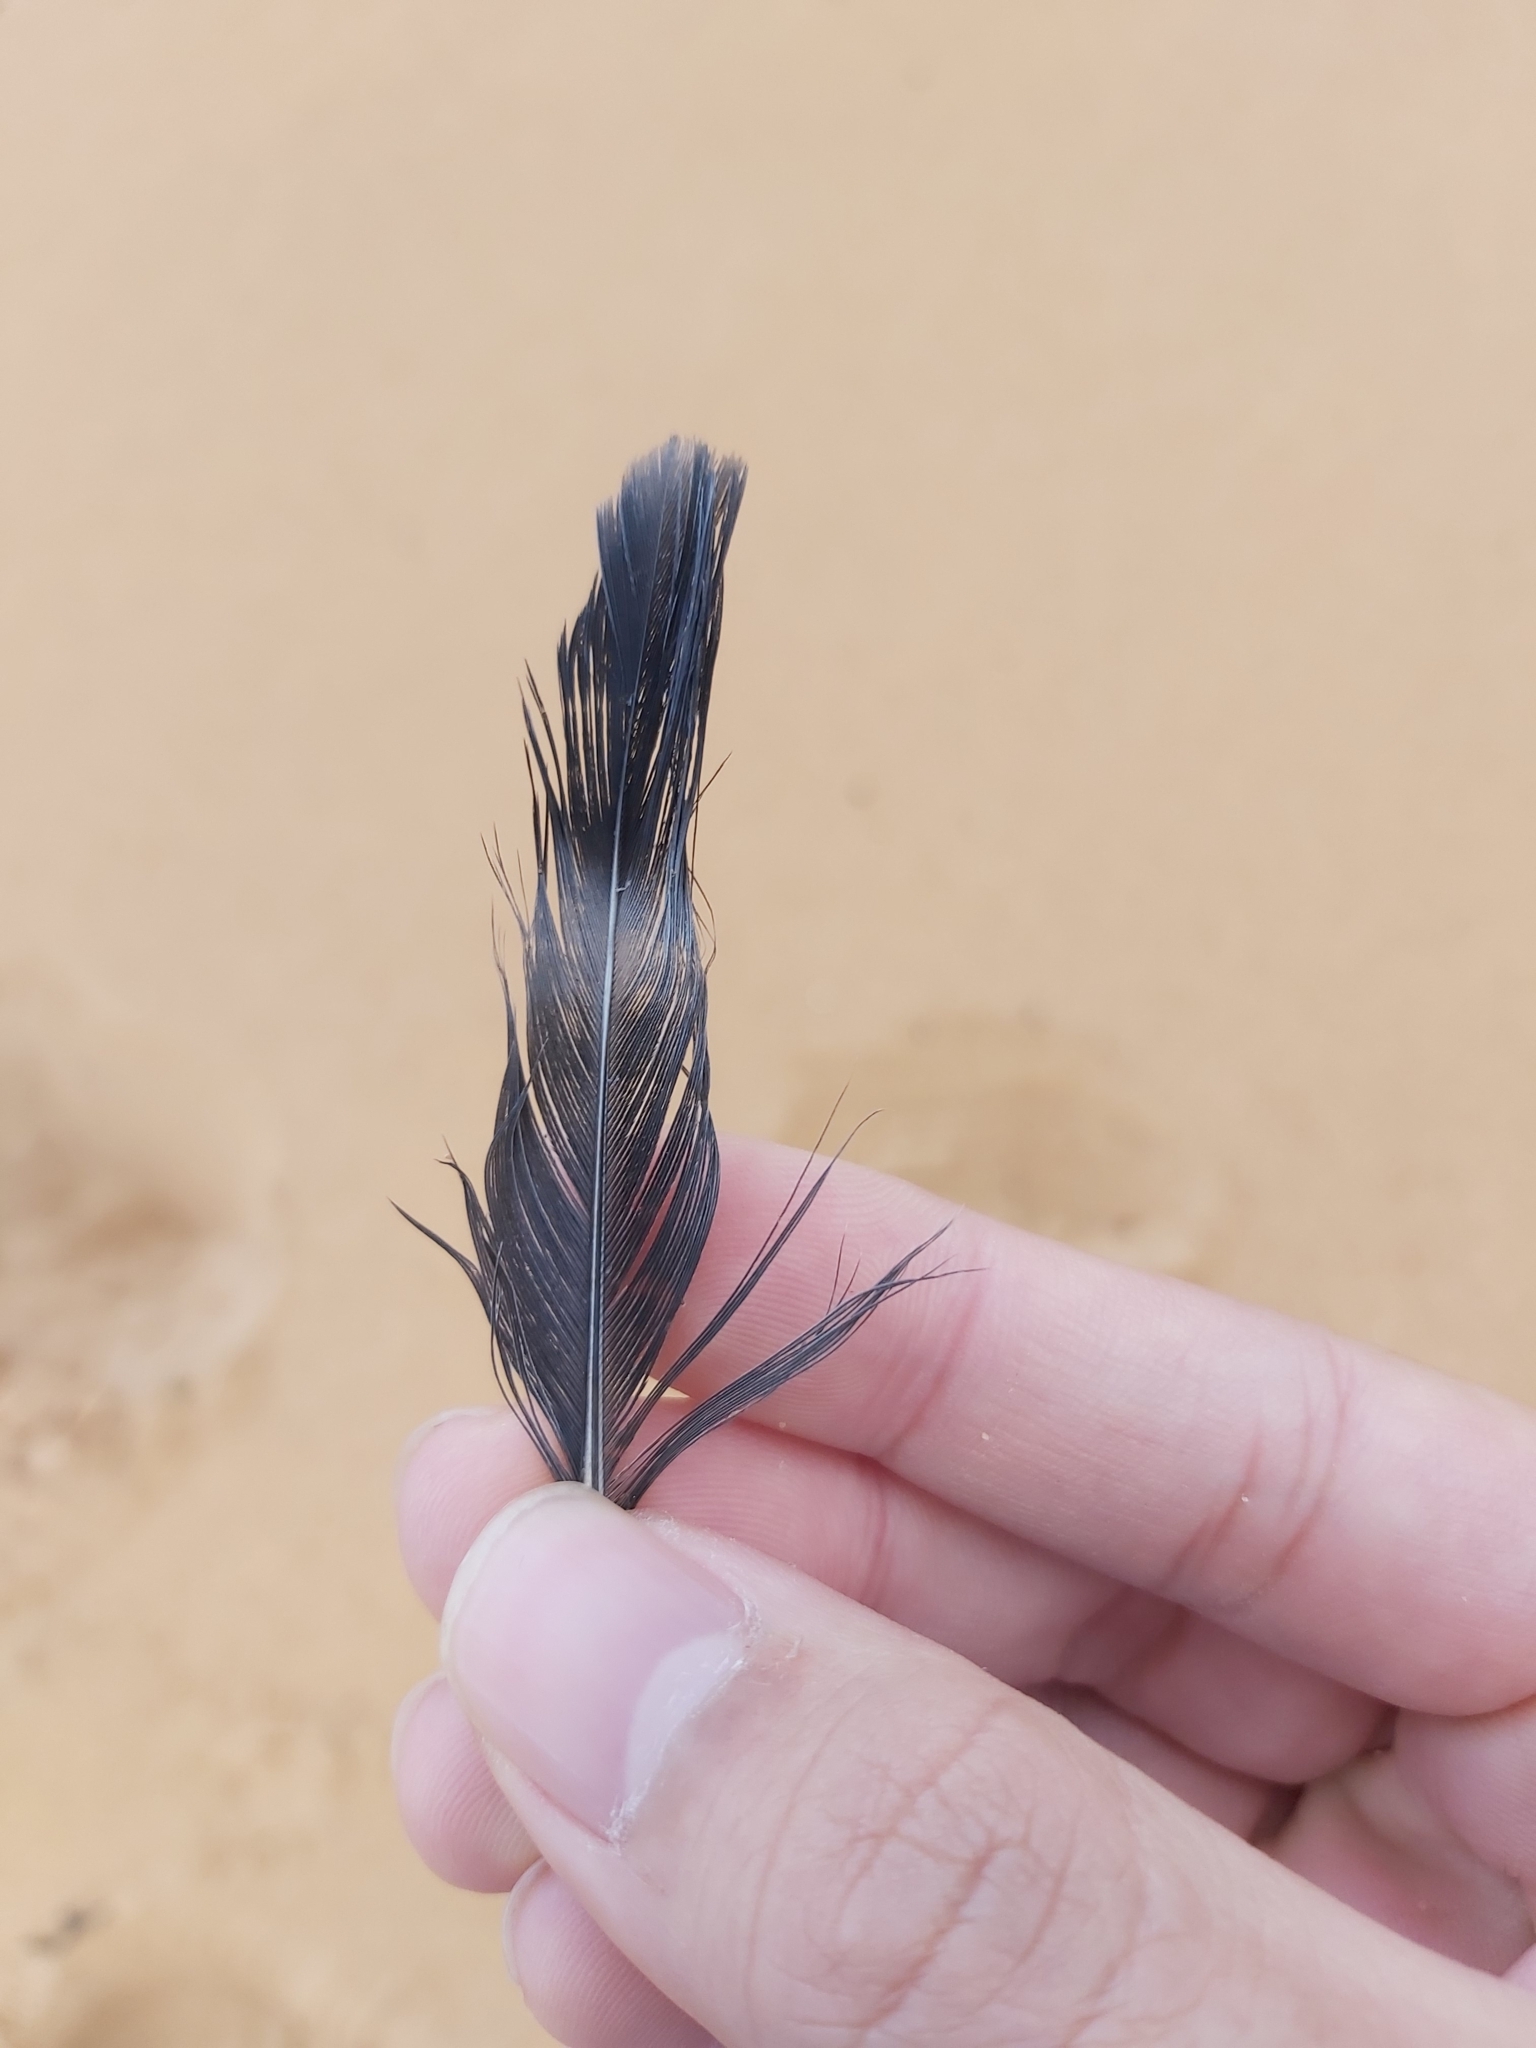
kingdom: Animalia
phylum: Chordata
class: Aves
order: Columbiformes
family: Columbidae
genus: Columba
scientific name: Columba livia
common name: Rock pigeon
